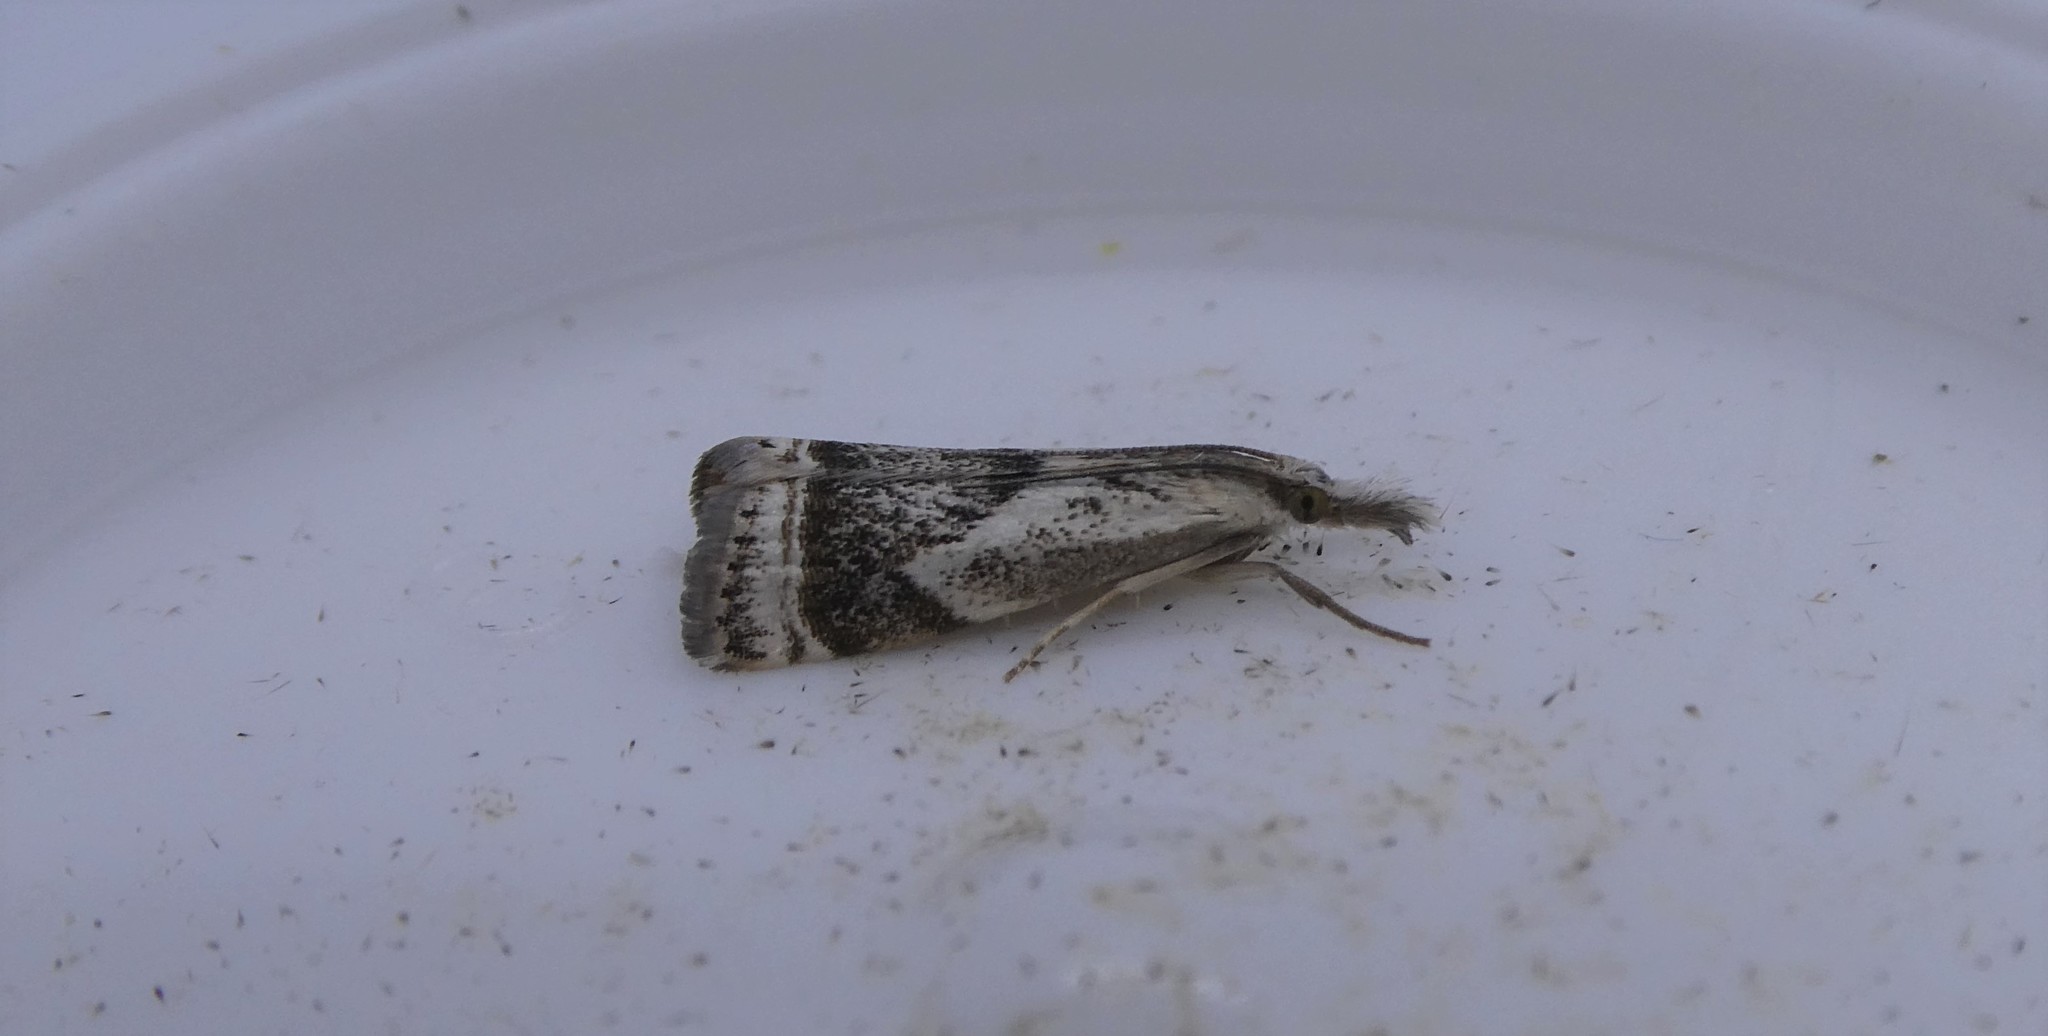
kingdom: Animalia
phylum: Arthropoda
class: Insecta
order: Lepidoptera
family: Crambidae
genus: Microcrambus
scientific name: Microcrambus elegans
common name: Elegant grass-veneer
